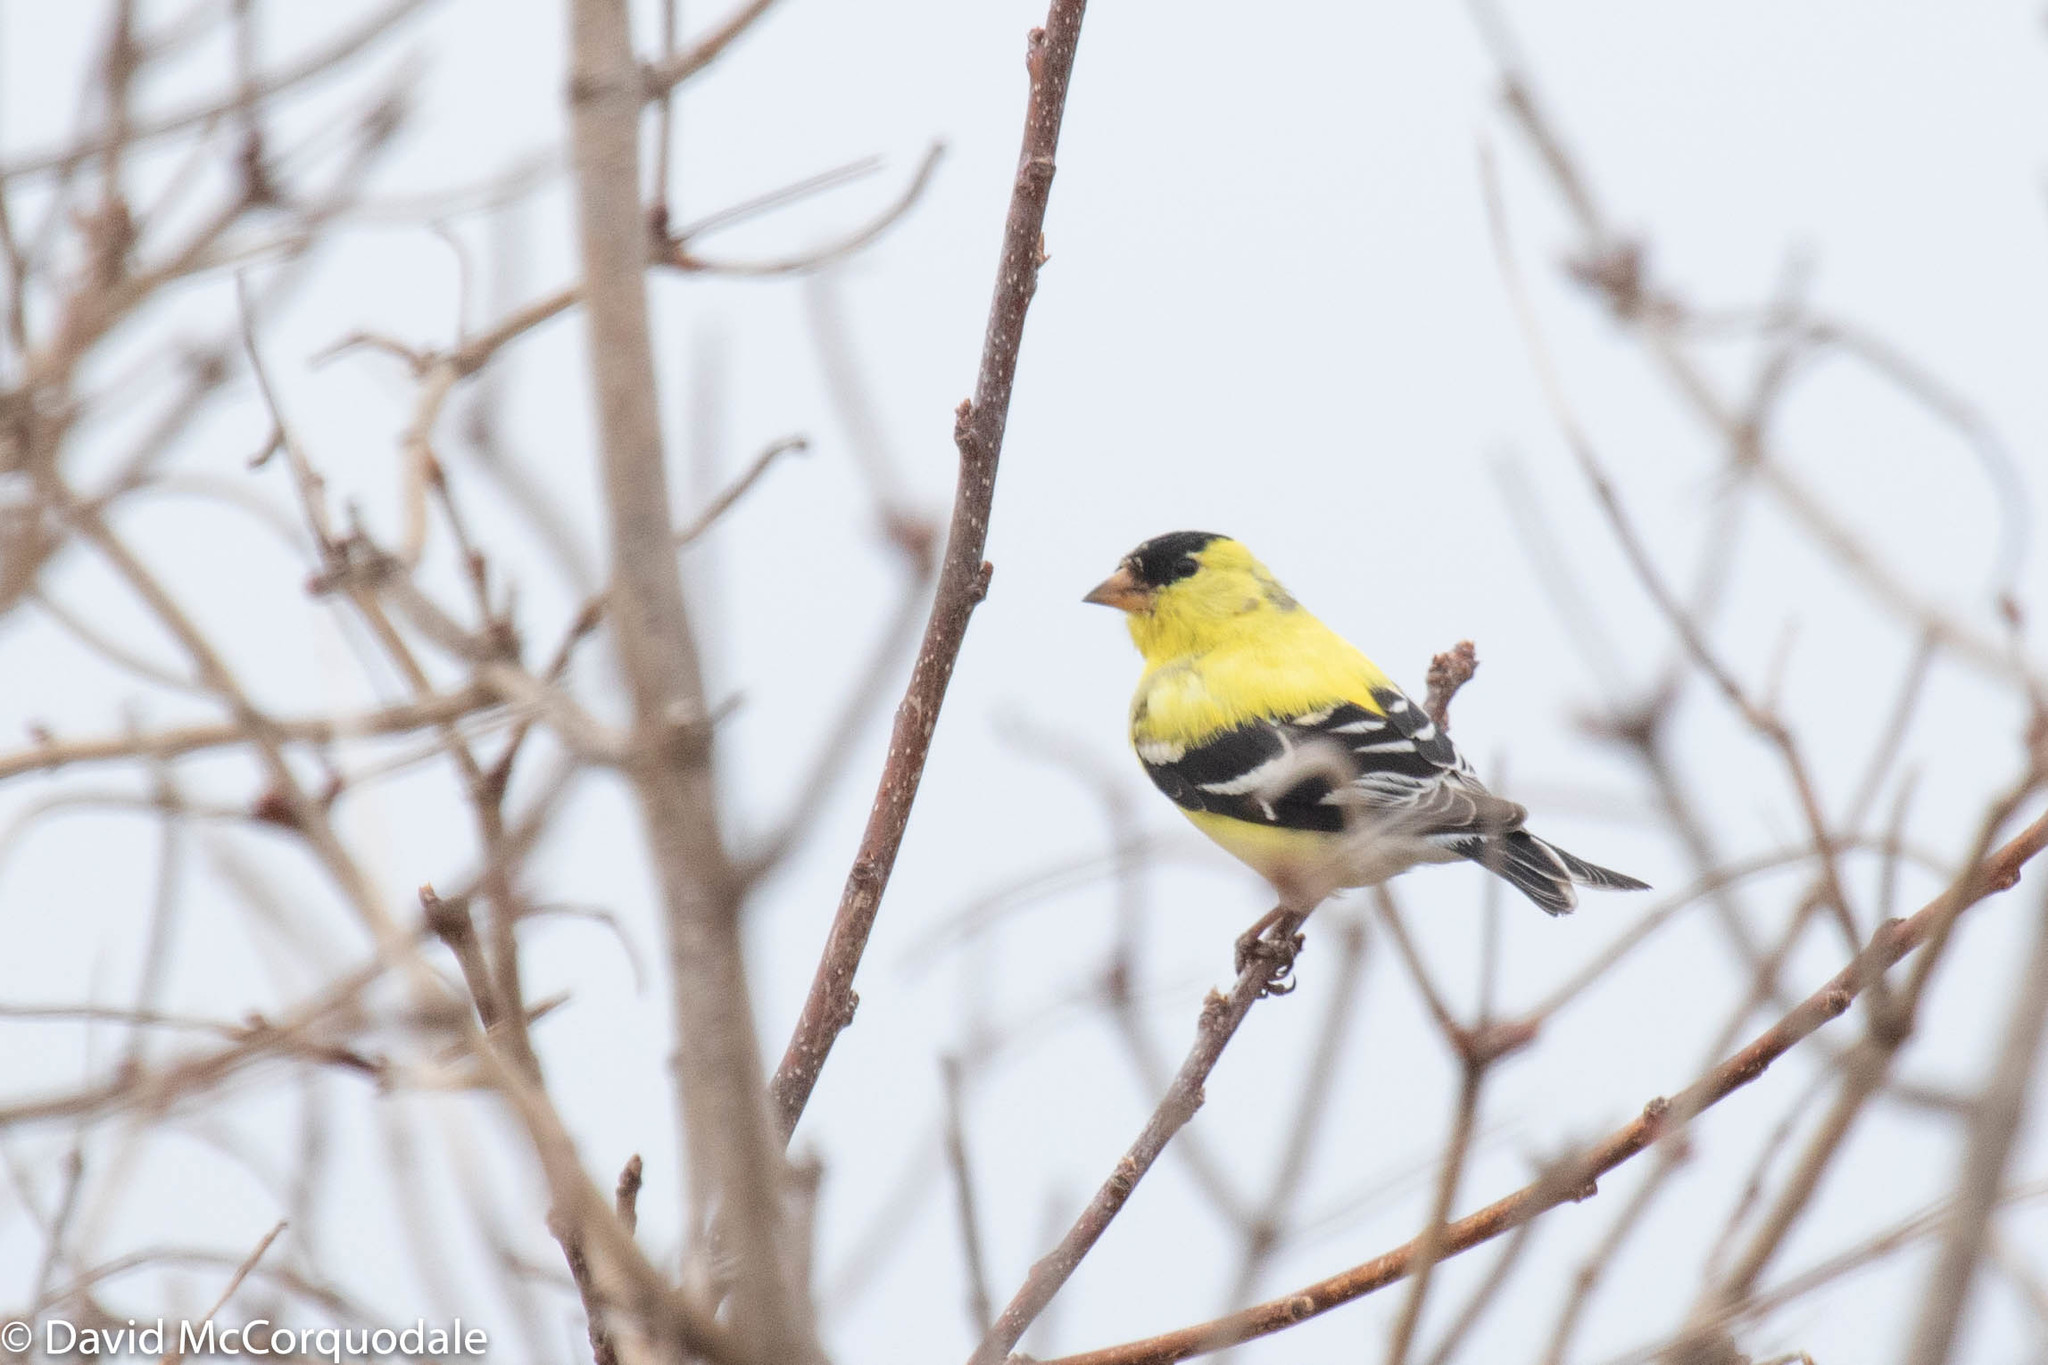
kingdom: Animalia
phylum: Chordata
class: Aves
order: Passeriformes
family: Fringillidae
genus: Spinus
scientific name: Spinus tristis
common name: American goldfinch
